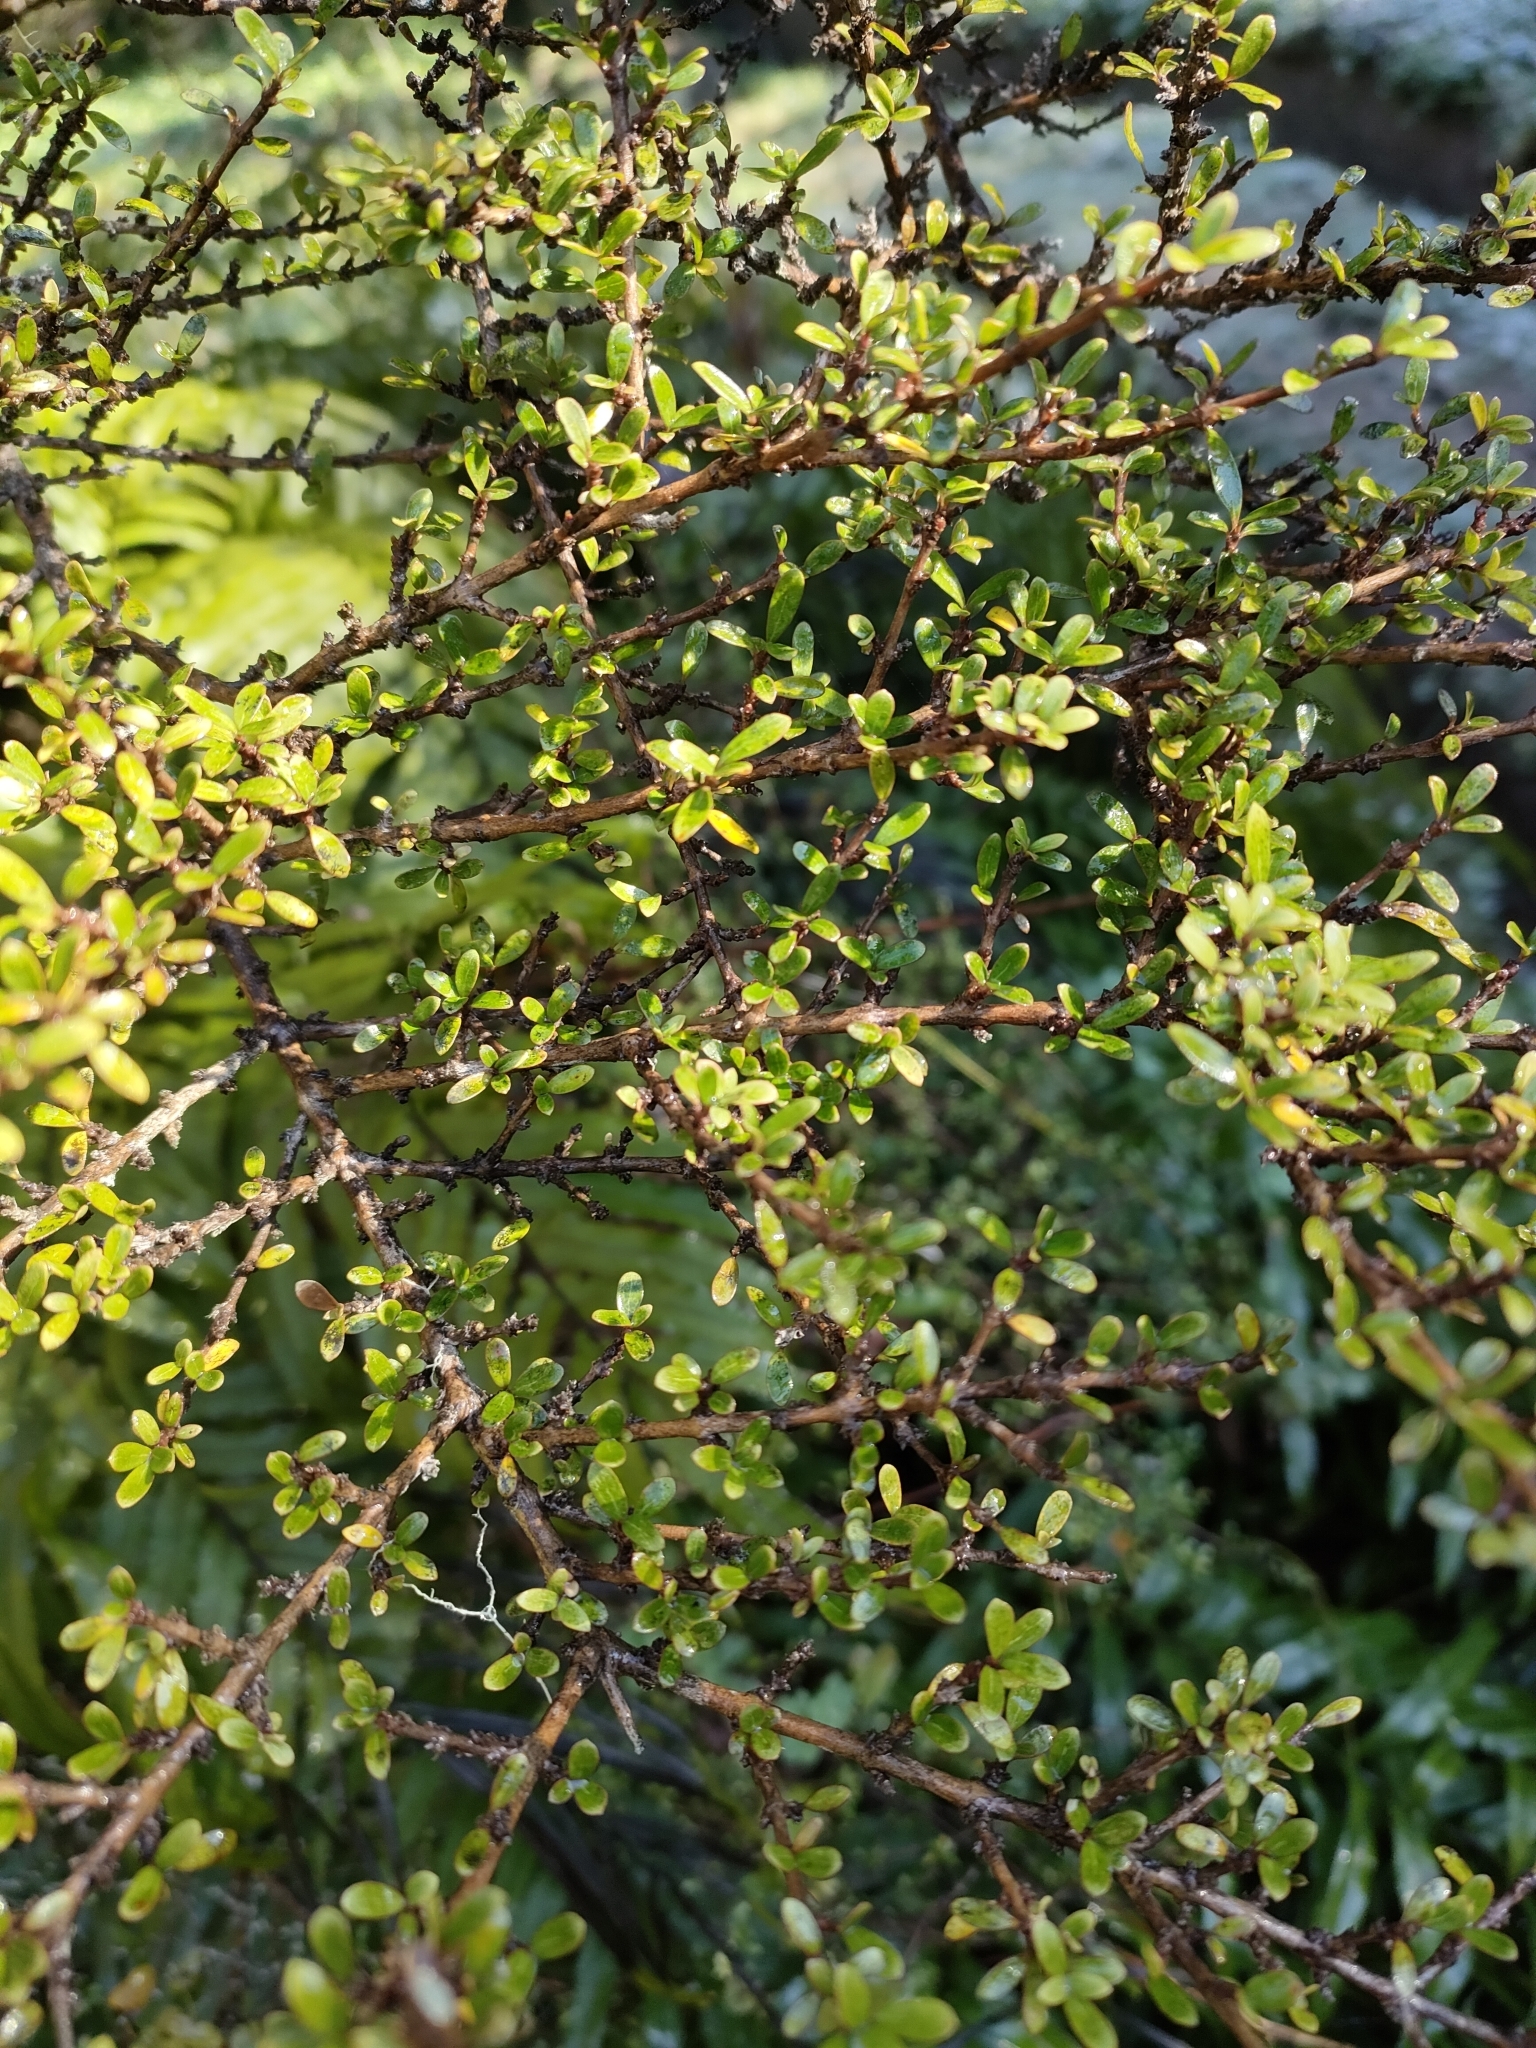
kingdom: Plantae
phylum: Tracheophyta
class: Magnoliopsida
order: Gentianales
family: Rubiaceae
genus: Coprosma
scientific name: Coprosma dumosa
